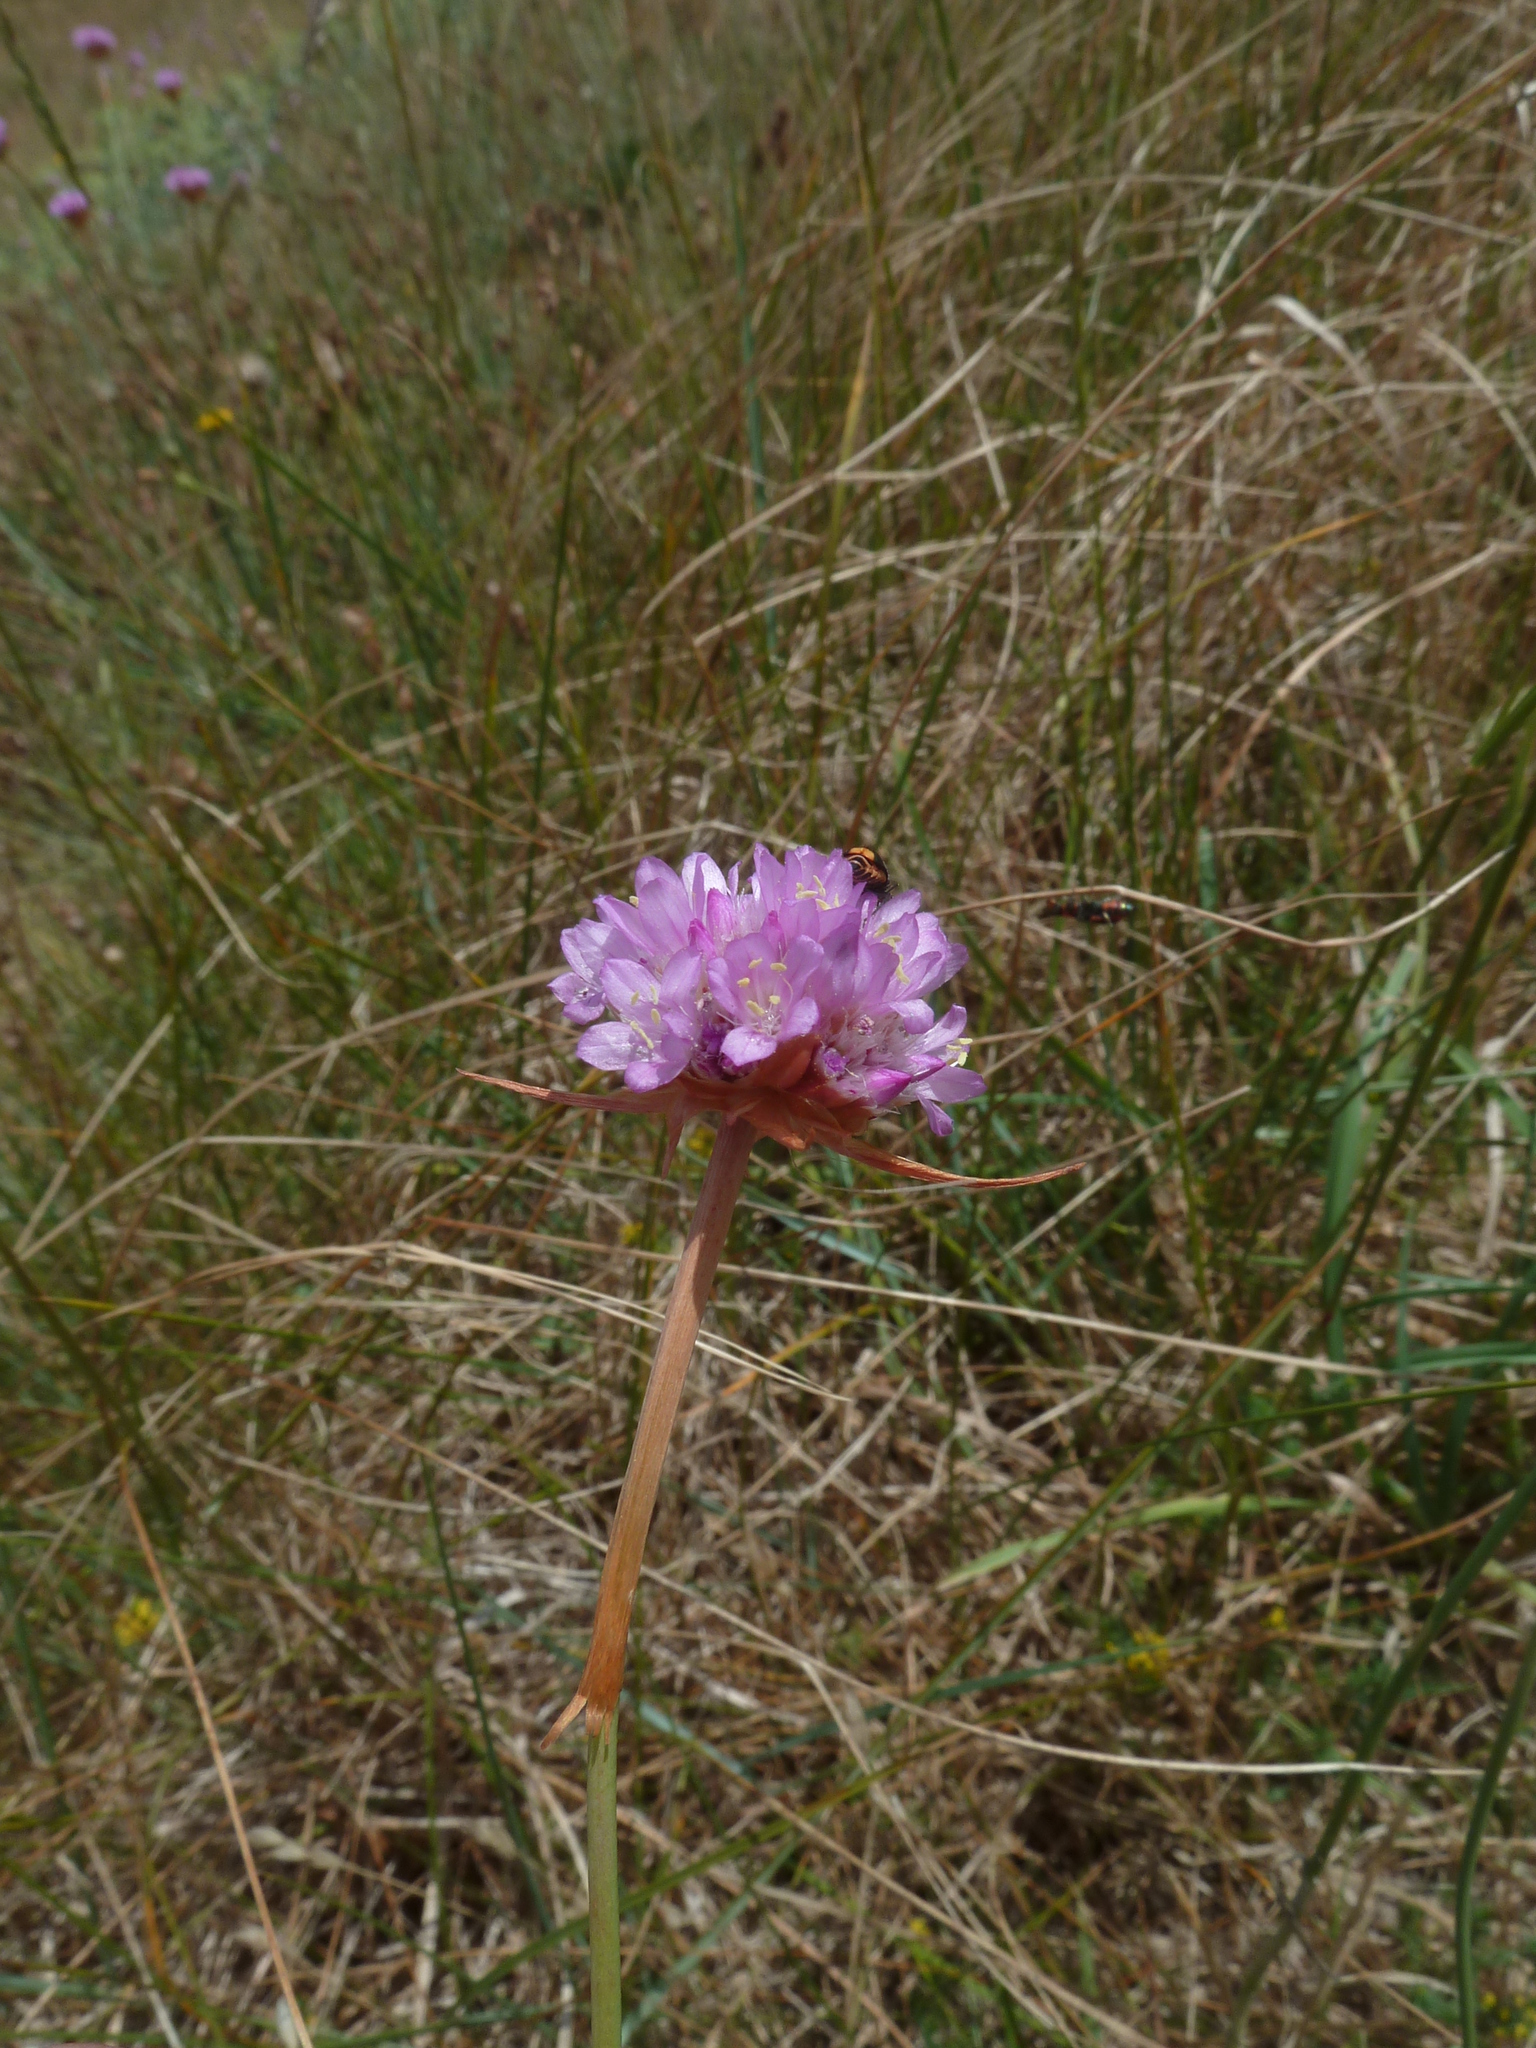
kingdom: Plantae
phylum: Tracheophyta
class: Magnoliopsida
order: Caryophyllales
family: Plumbaginaceae
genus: Armeria
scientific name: Armeria maritima
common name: Thrift
